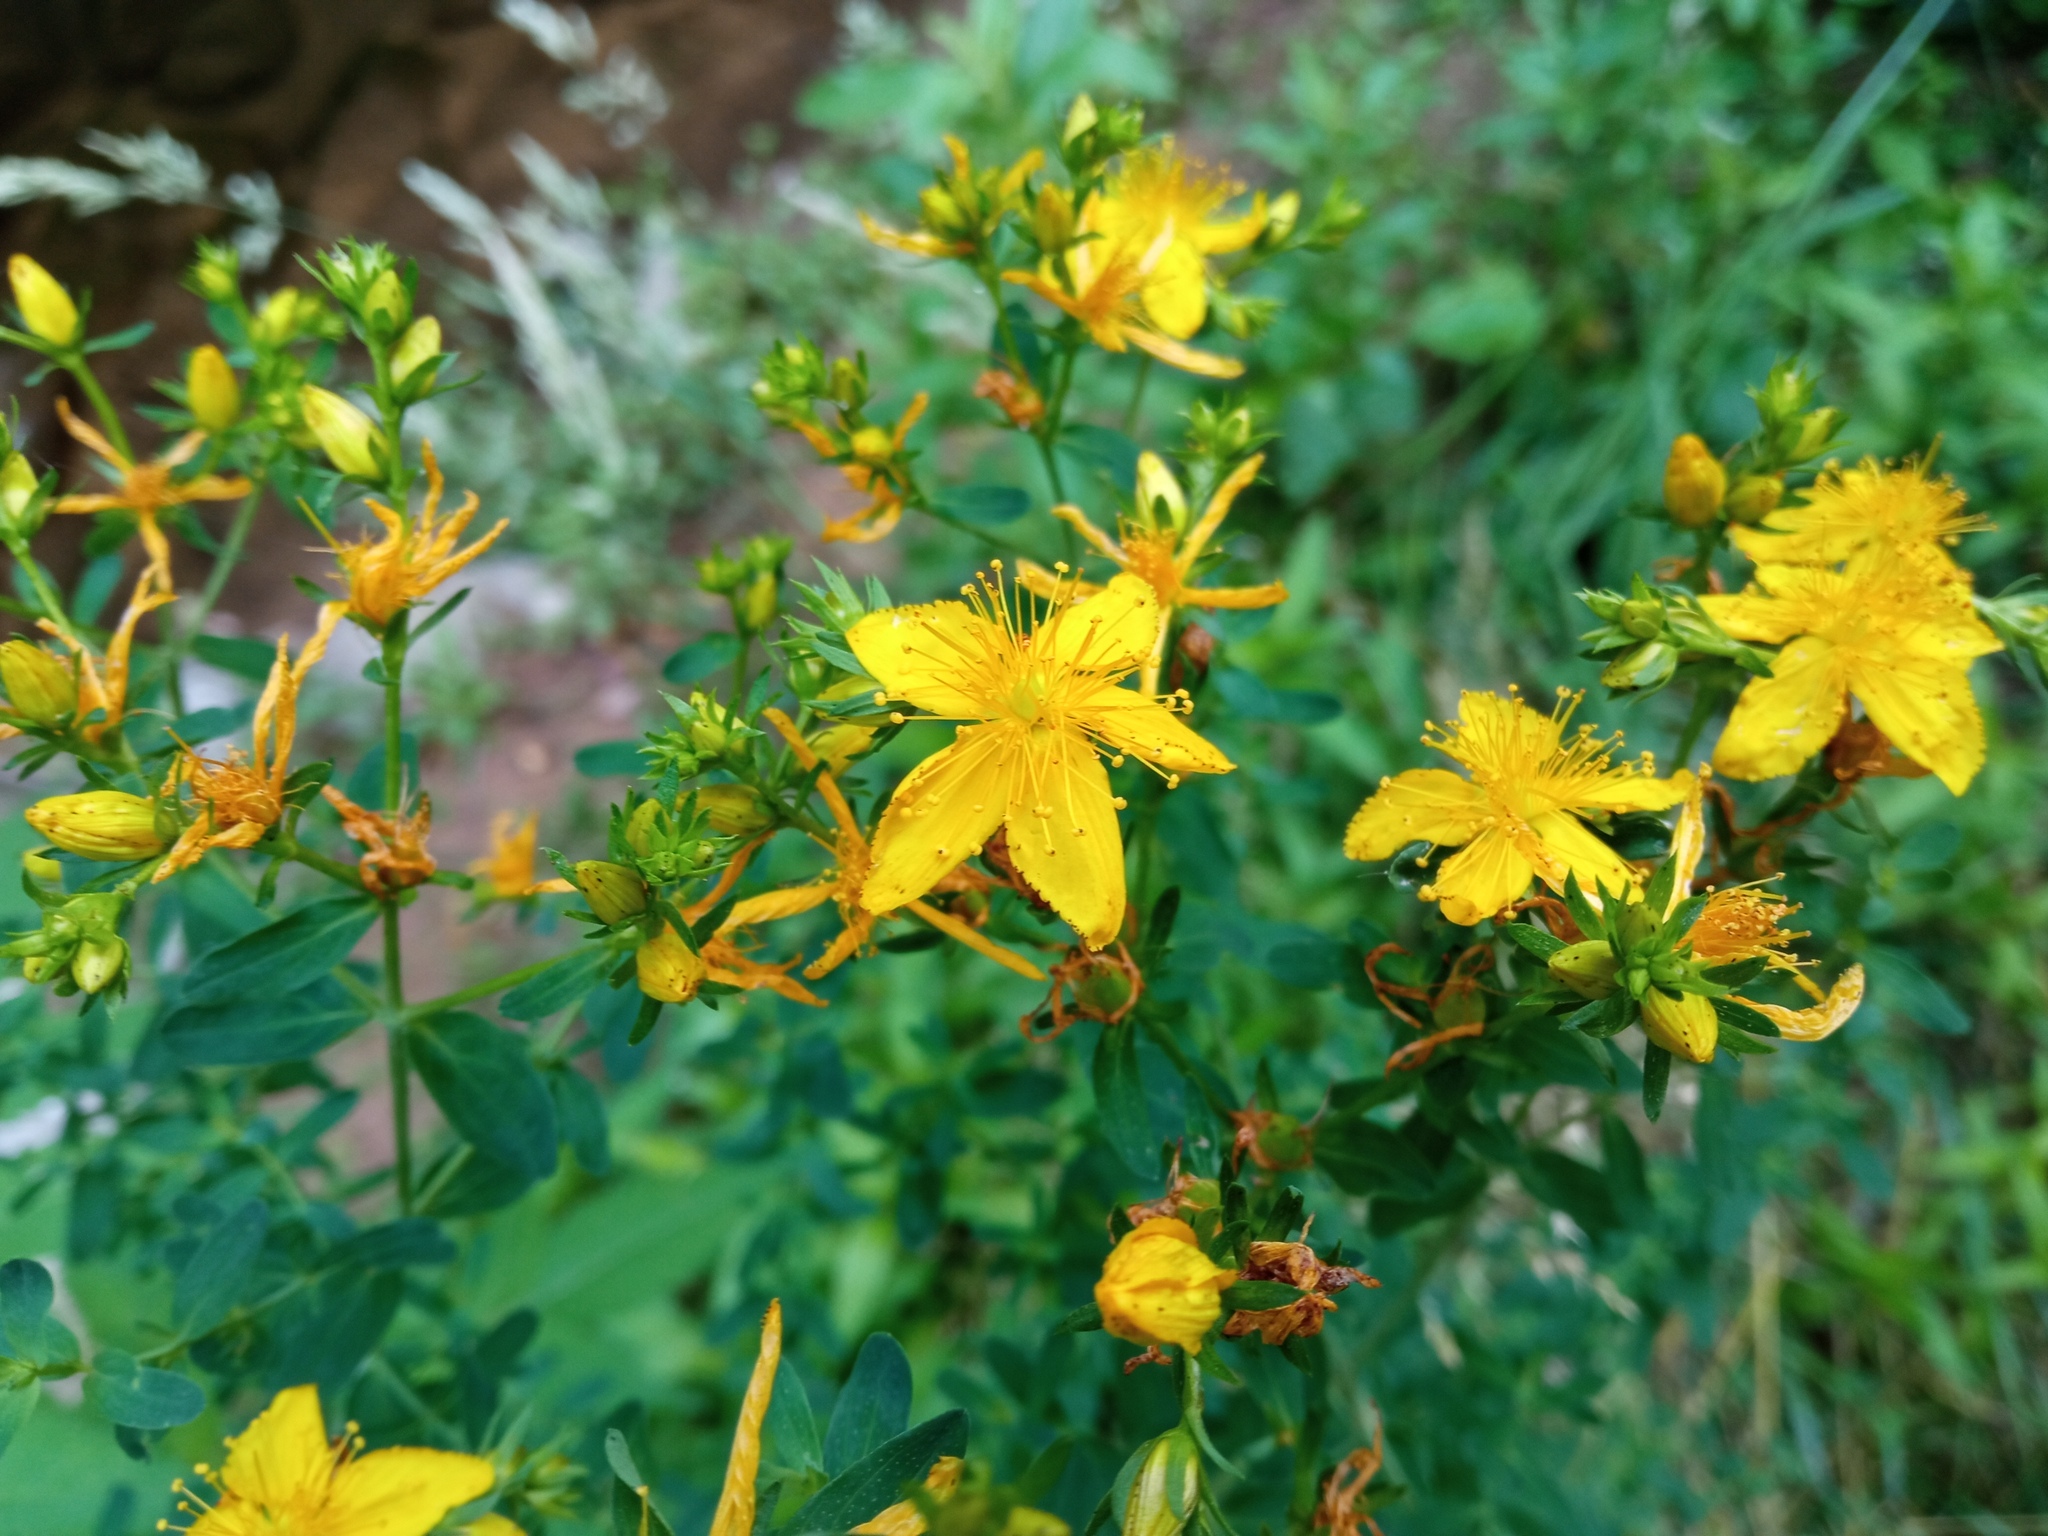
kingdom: Plantae
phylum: Tracheophyta
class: Magnoliopsida
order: Malpighiales
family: Hypericaceae
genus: Hypericum
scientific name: Hypericum perforatum
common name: Common st. johnswort
